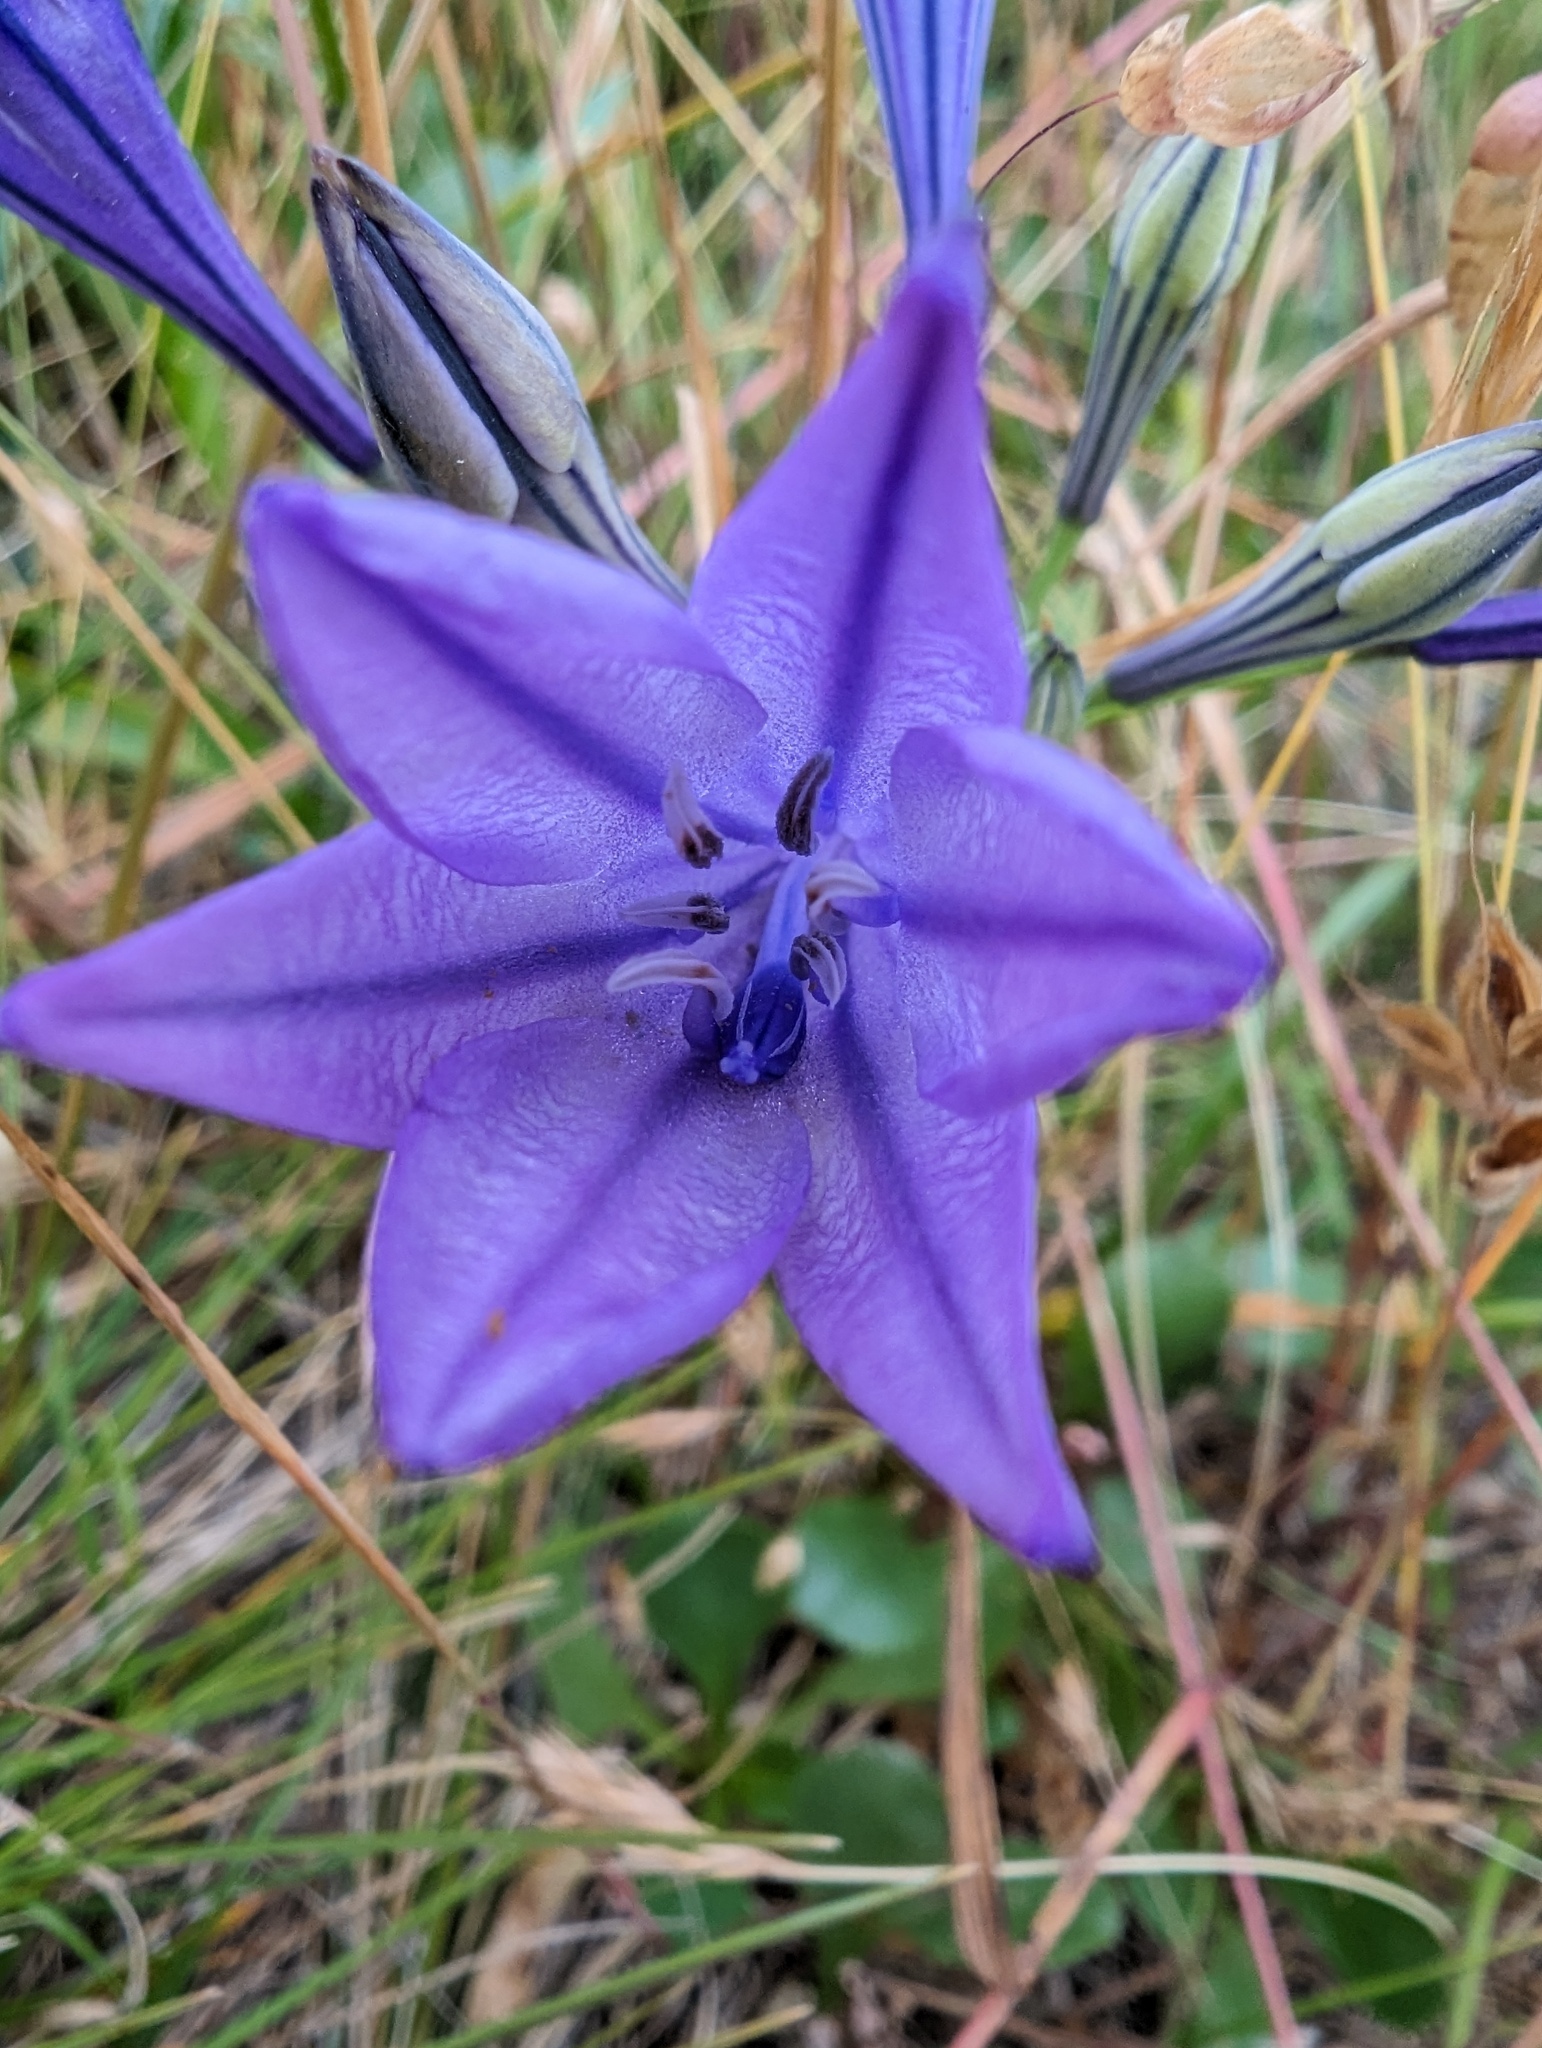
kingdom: Plantae
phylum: Tracheophyta
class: Liliopsida
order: Asparagales
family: Asparagaceae
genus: Triteleia
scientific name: Triteleia laxa
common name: Triplet-lily
